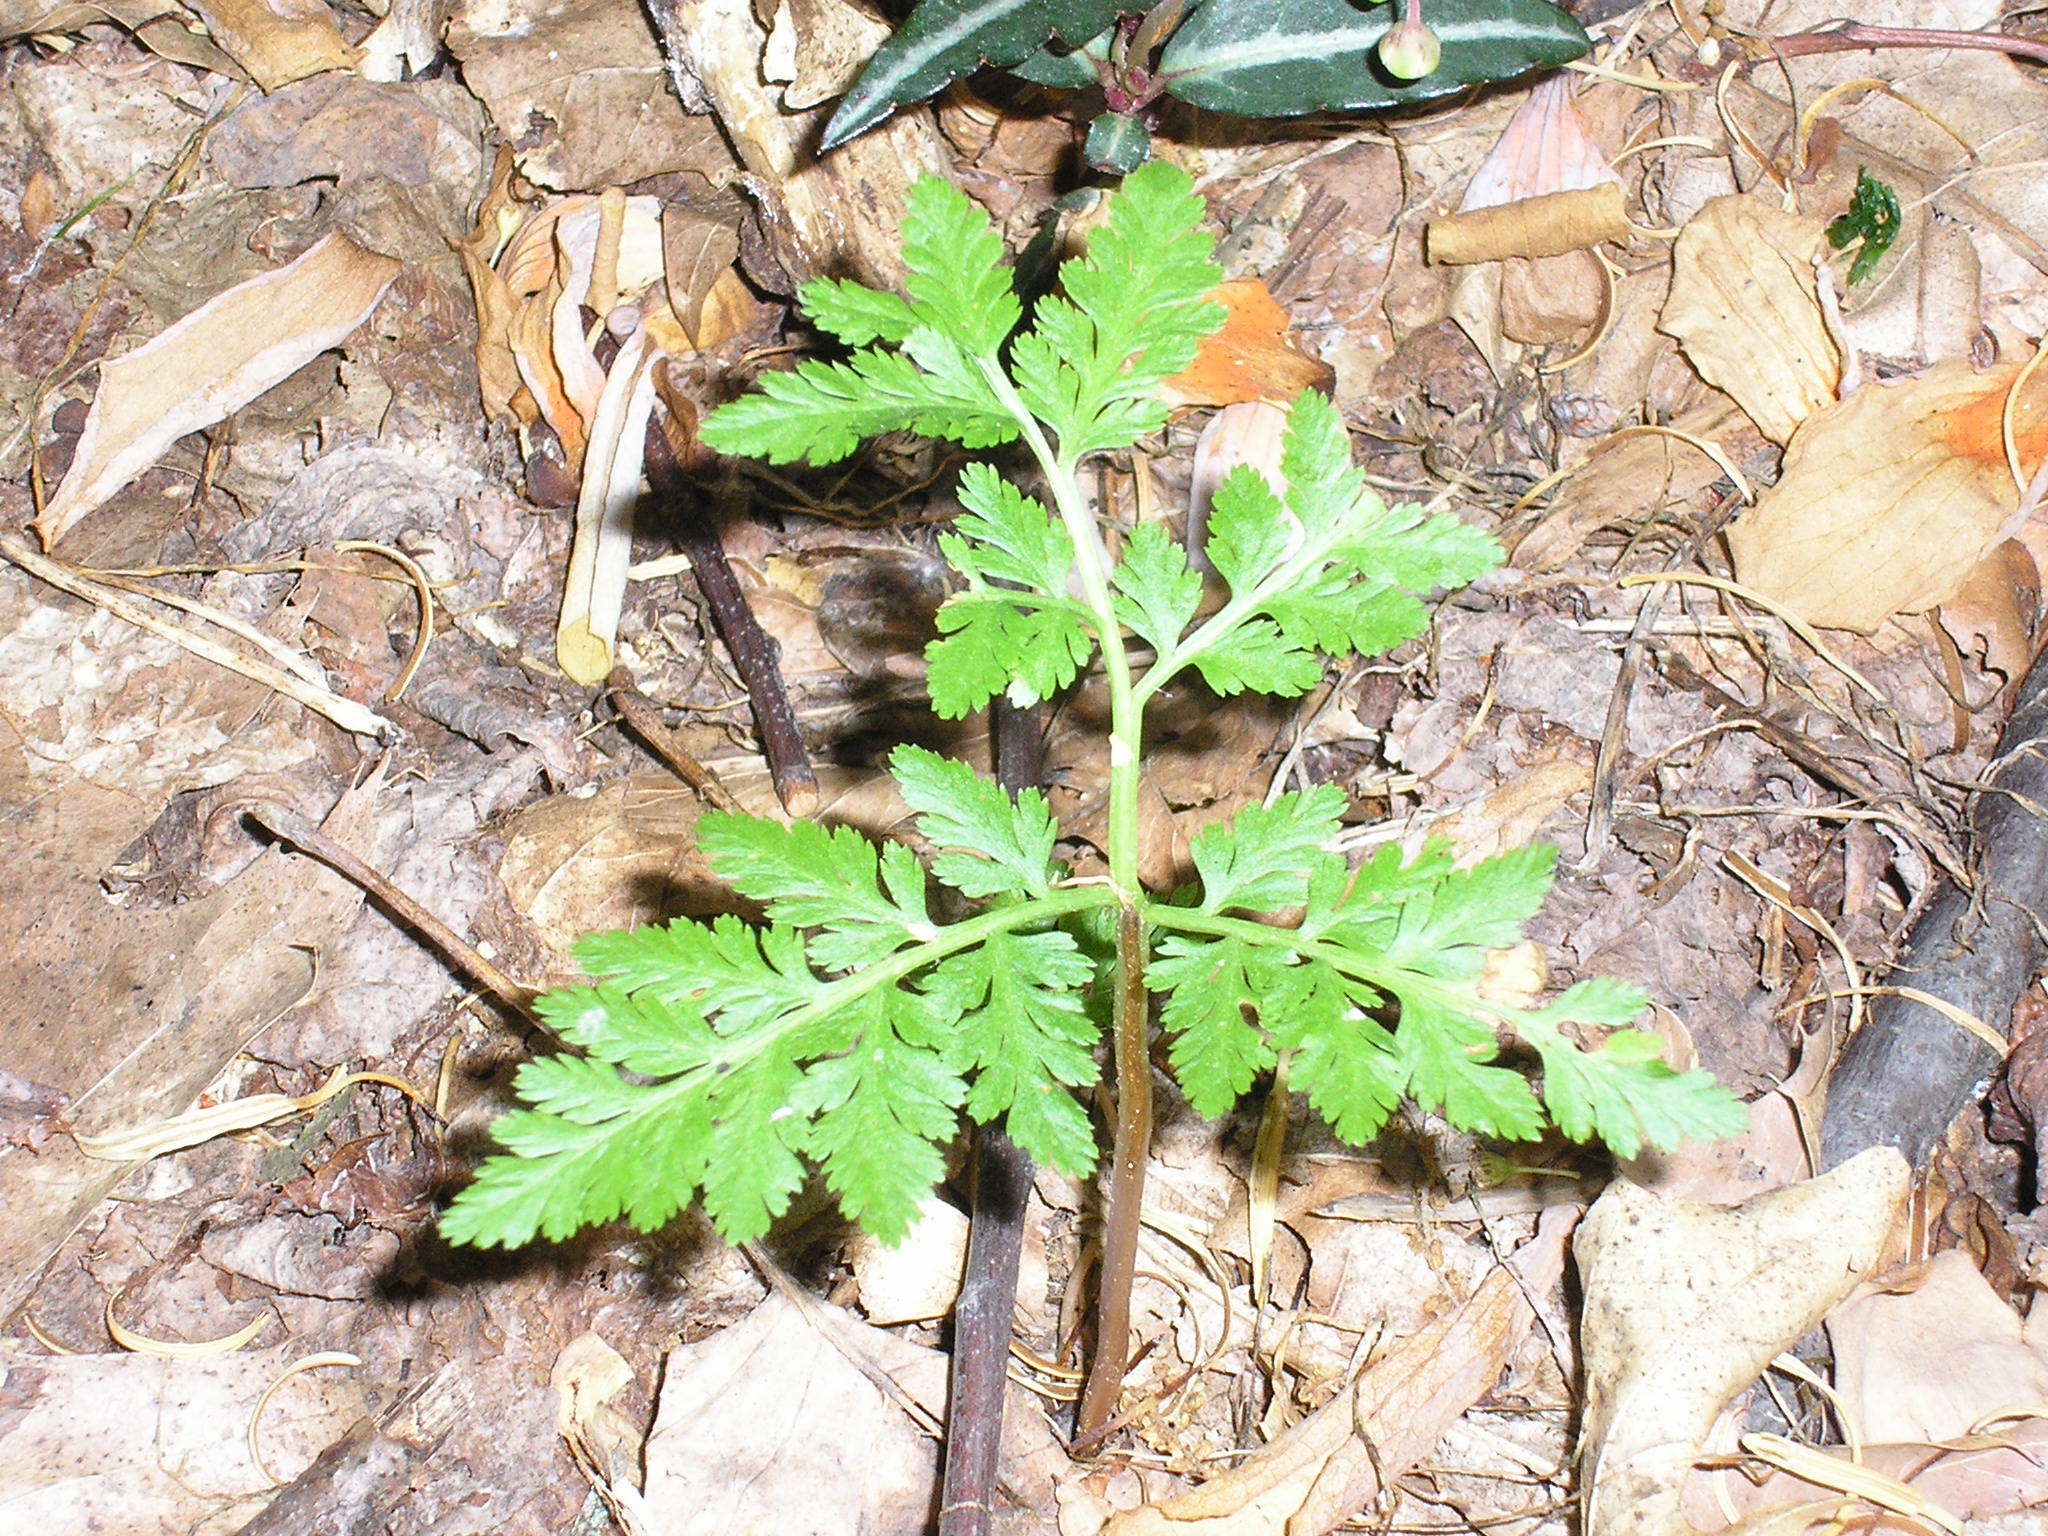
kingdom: Plantae
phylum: Tracheophyta
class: Polypodiopsida
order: Ophioglossales
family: Ophioglossaceae
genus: Botrypus
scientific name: Botrypus virginianus
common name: Common grapefern
